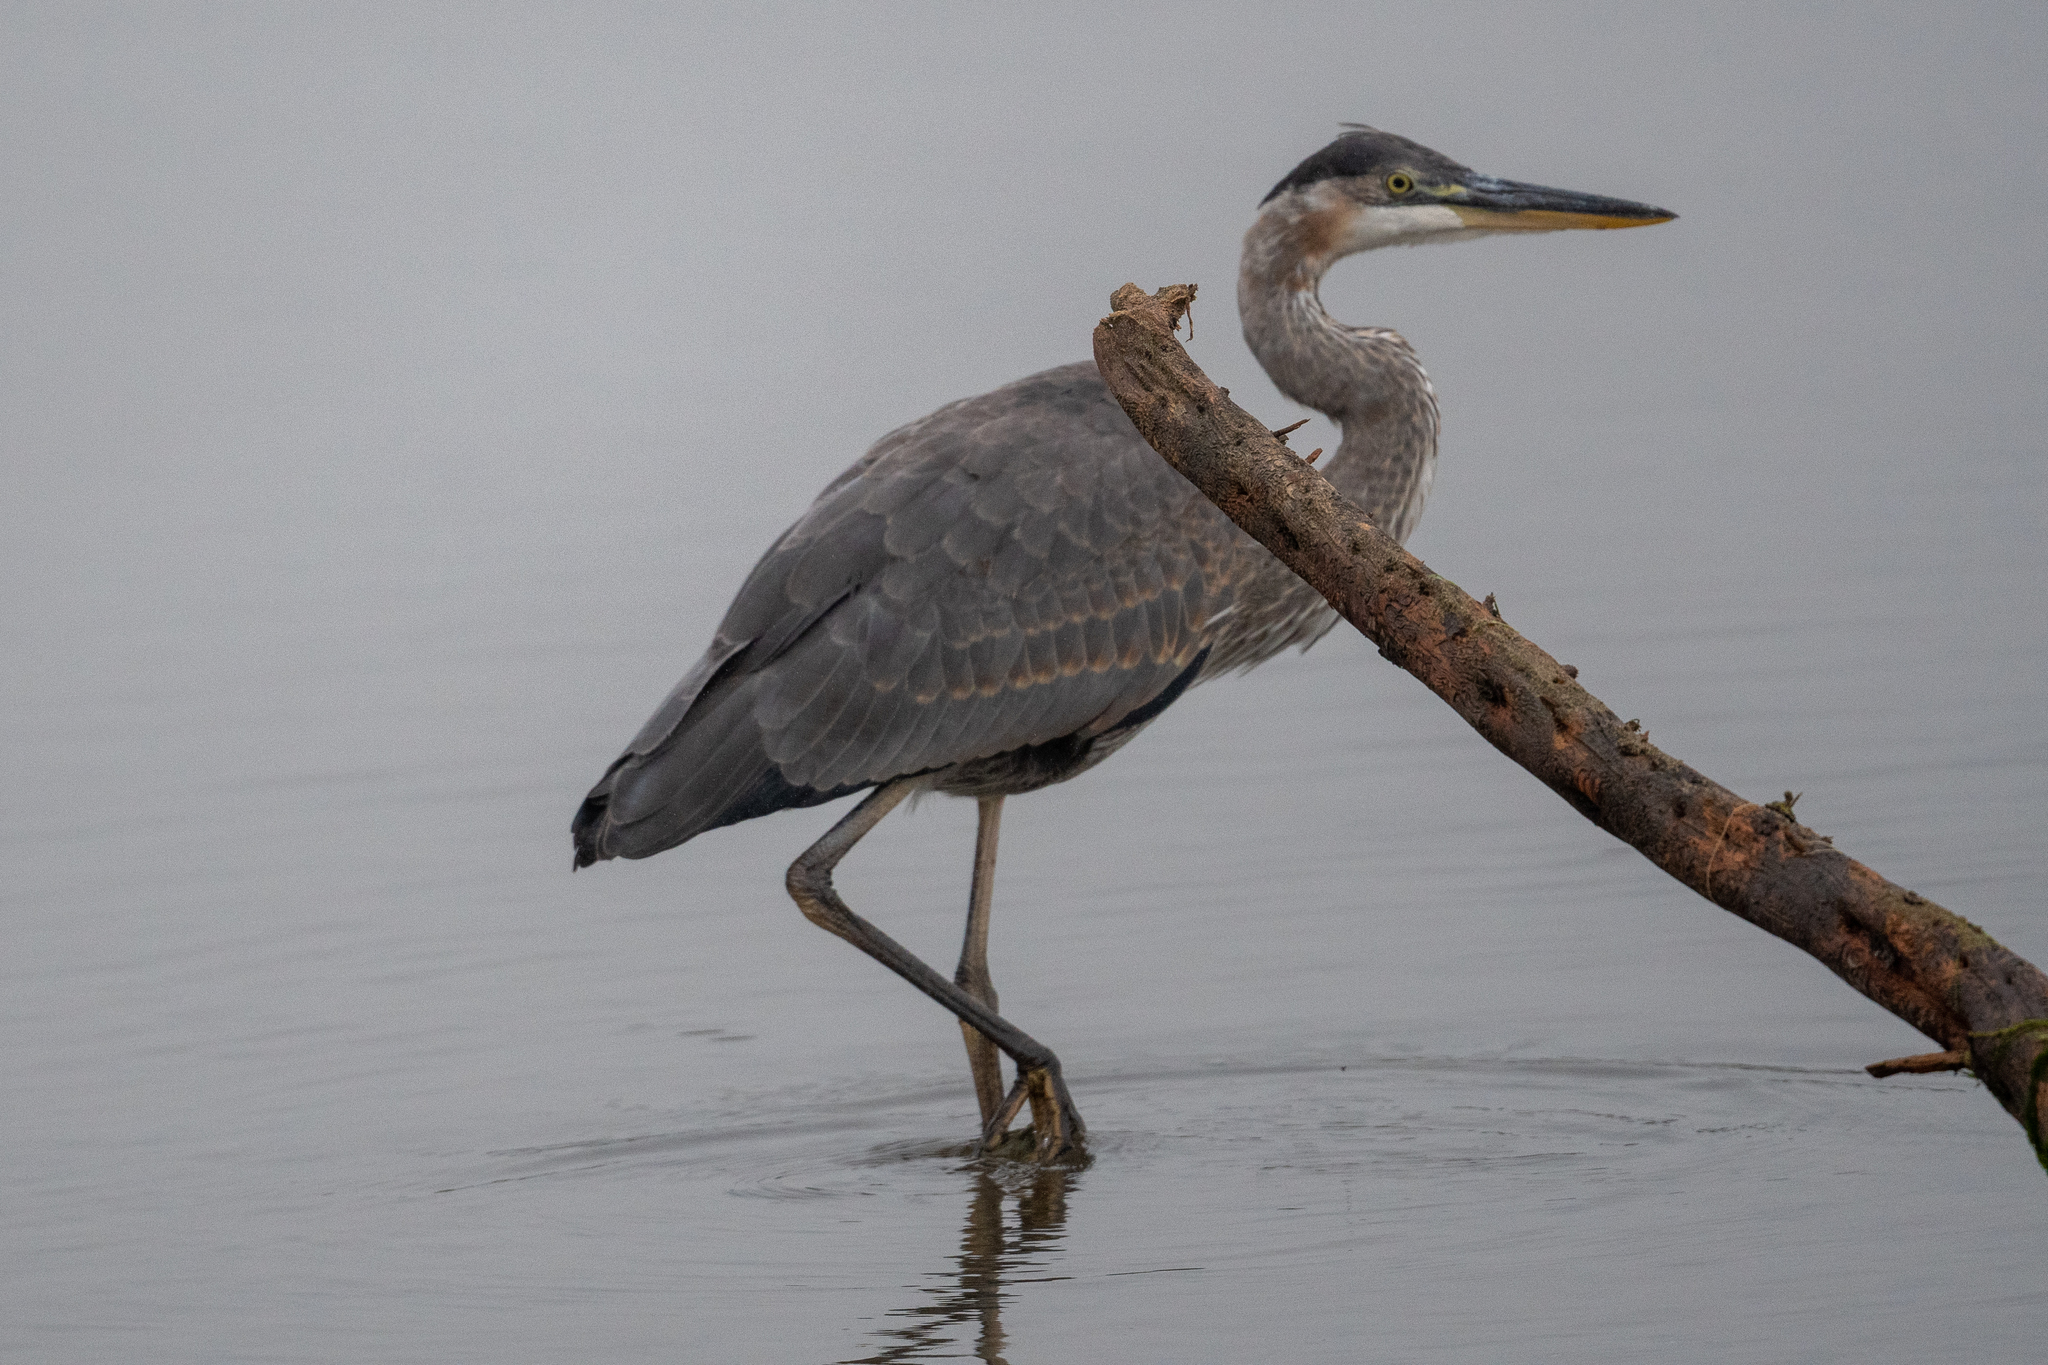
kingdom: Animalia
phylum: Chordata
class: Aves
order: Pelecaniformes
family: Ardeidae
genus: Ardea
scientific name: Ardea herodias
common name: Great blue heron
